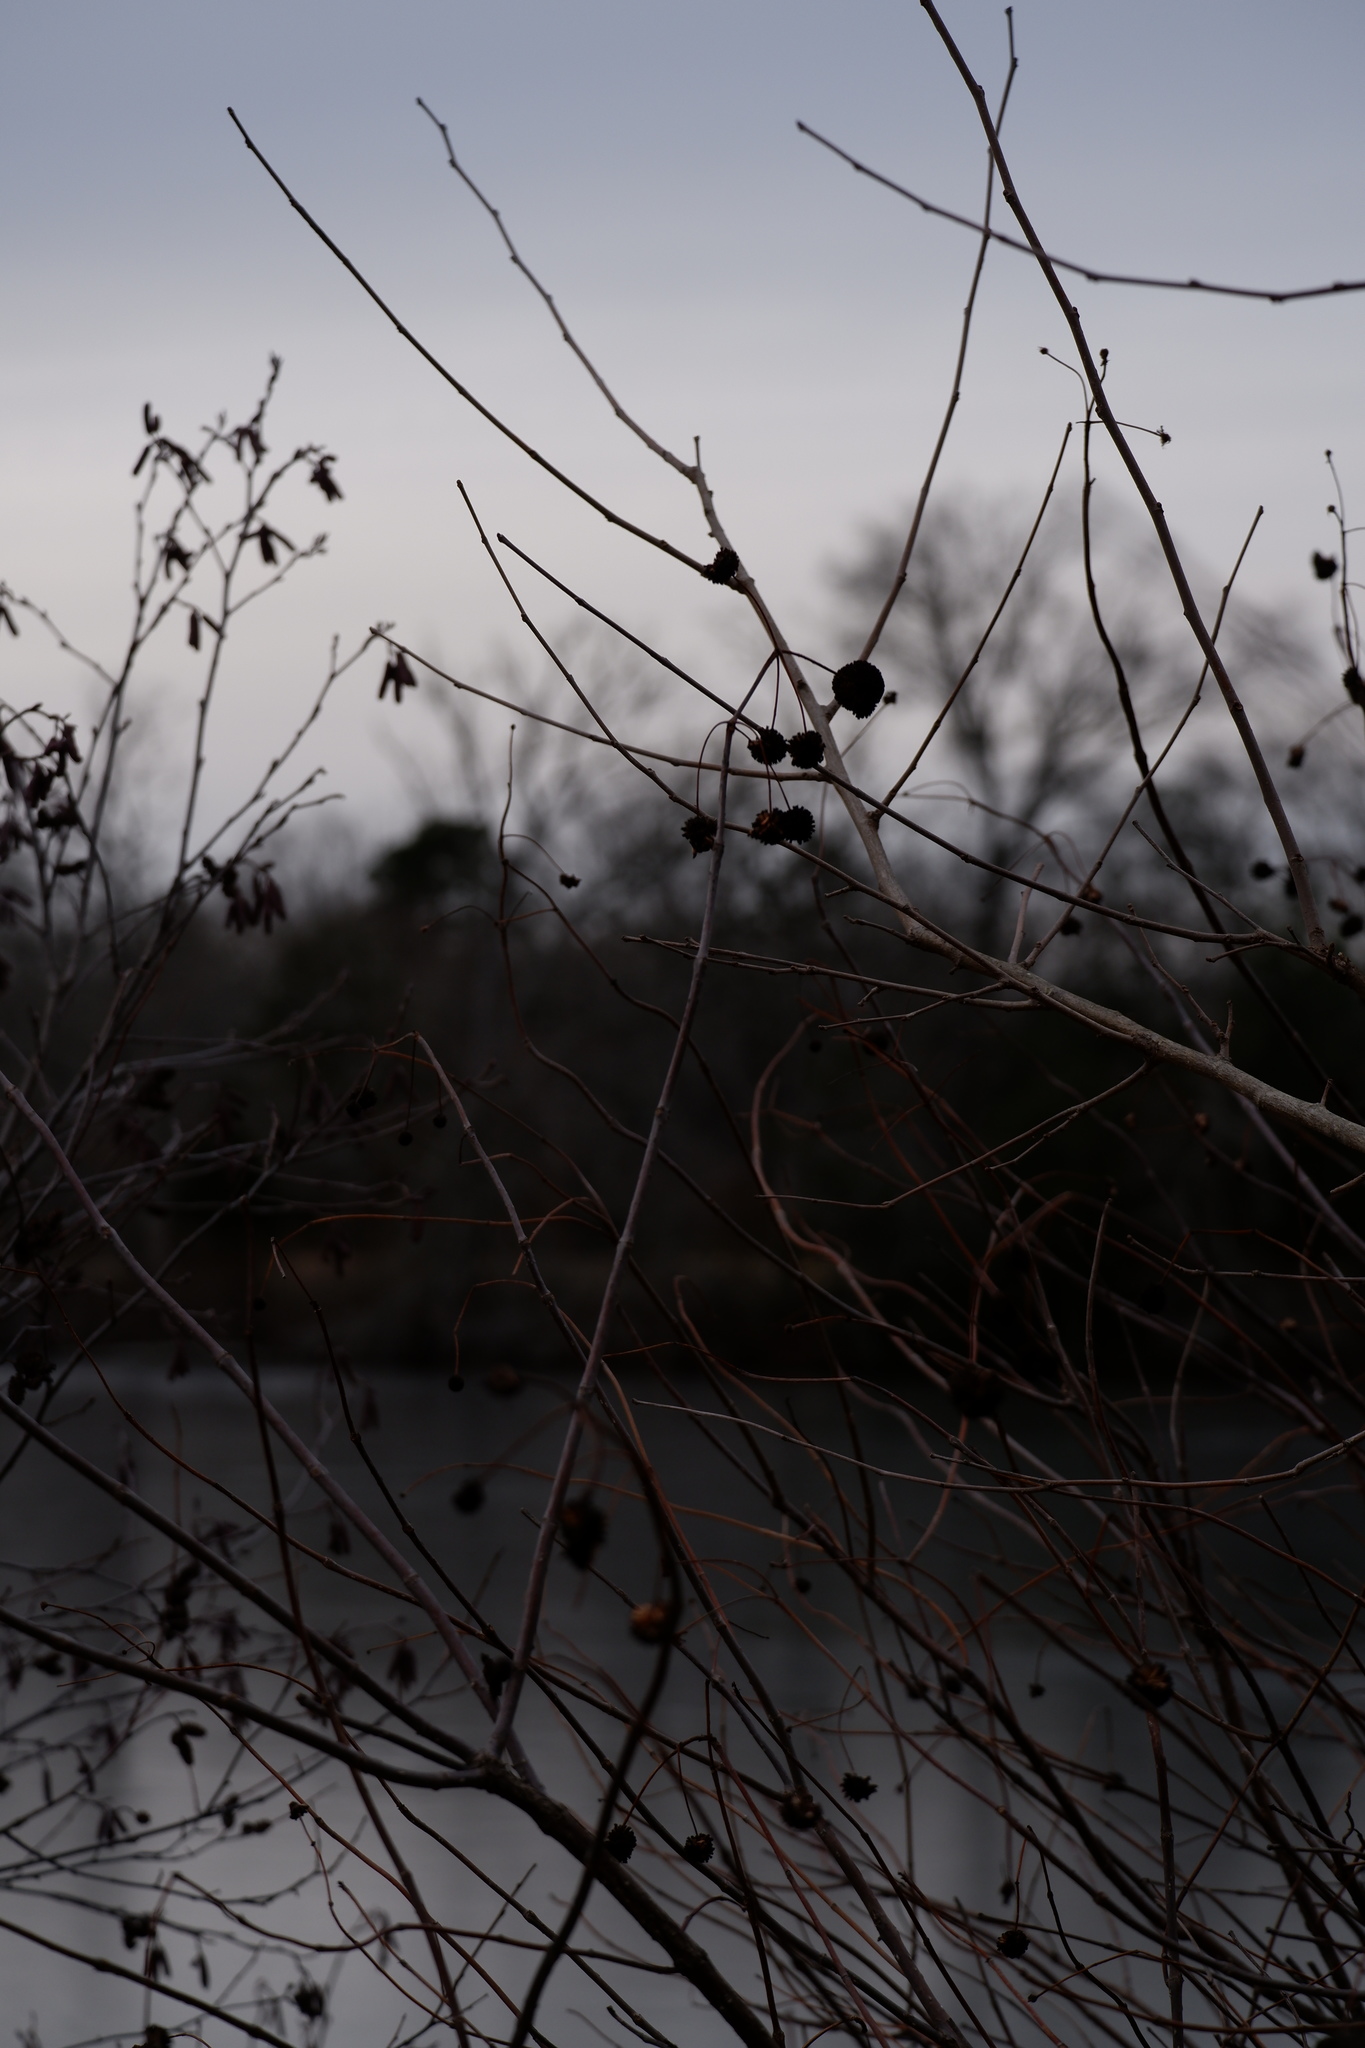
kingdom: Plantae
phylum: Tracheophyta
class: Magnoliopsida
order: Gentianales
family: Rubiaceae
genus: Cephalanthus
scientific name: Cephalanthus occidentalis
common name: Button-willow
